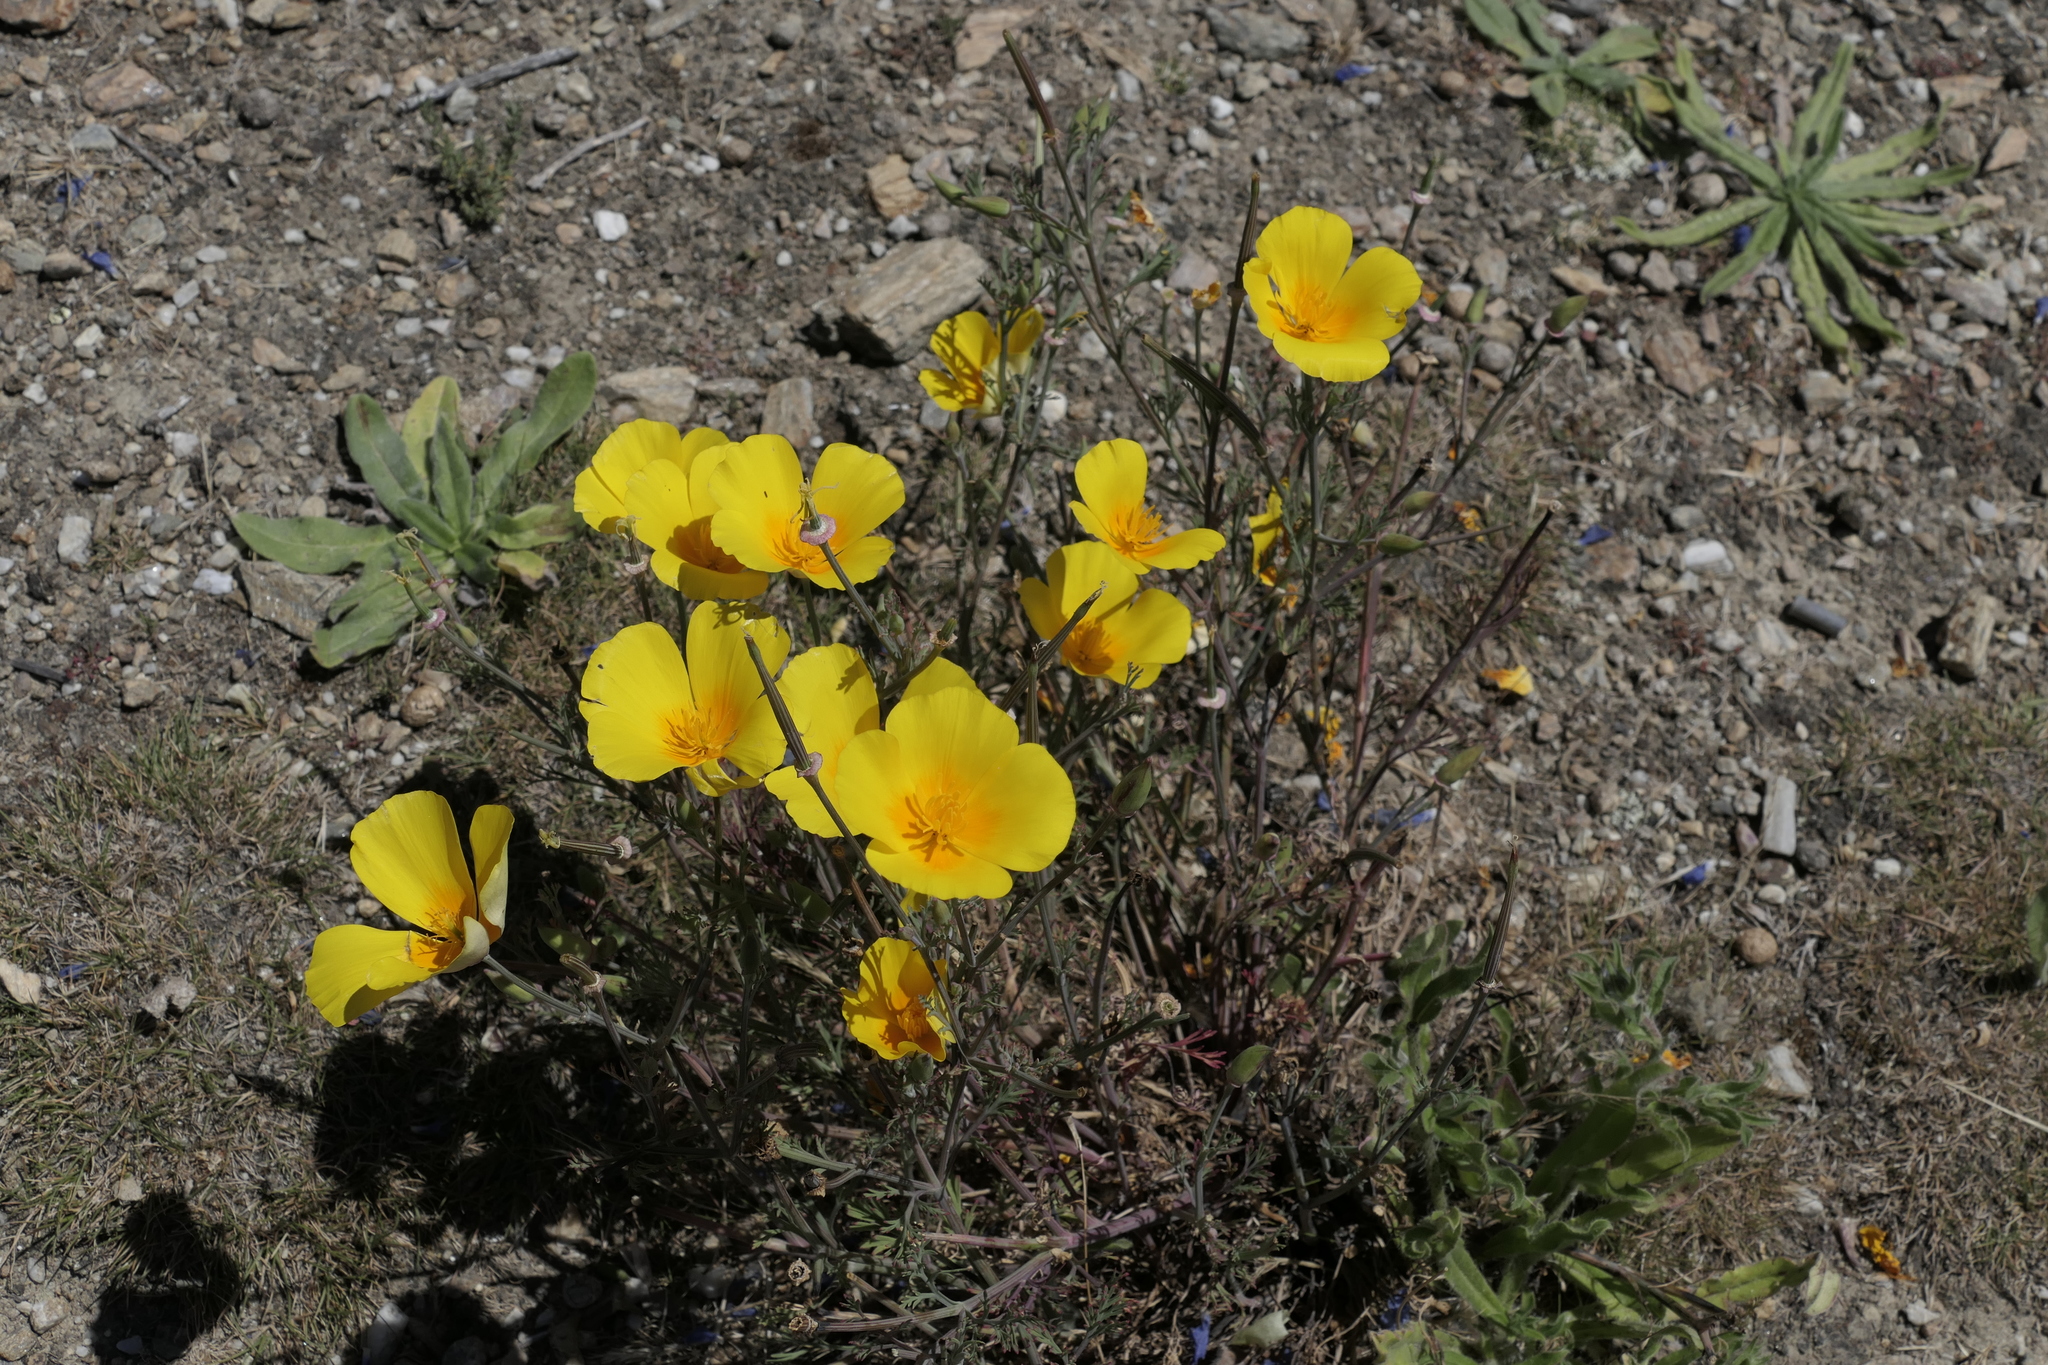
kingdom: Plantae
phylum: Tracheophyta
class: Magnoliopsida
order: Ranunculales
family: Papaveraceae
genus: Eschscholzia
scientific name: Eschscholzia californica
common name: California poppy
